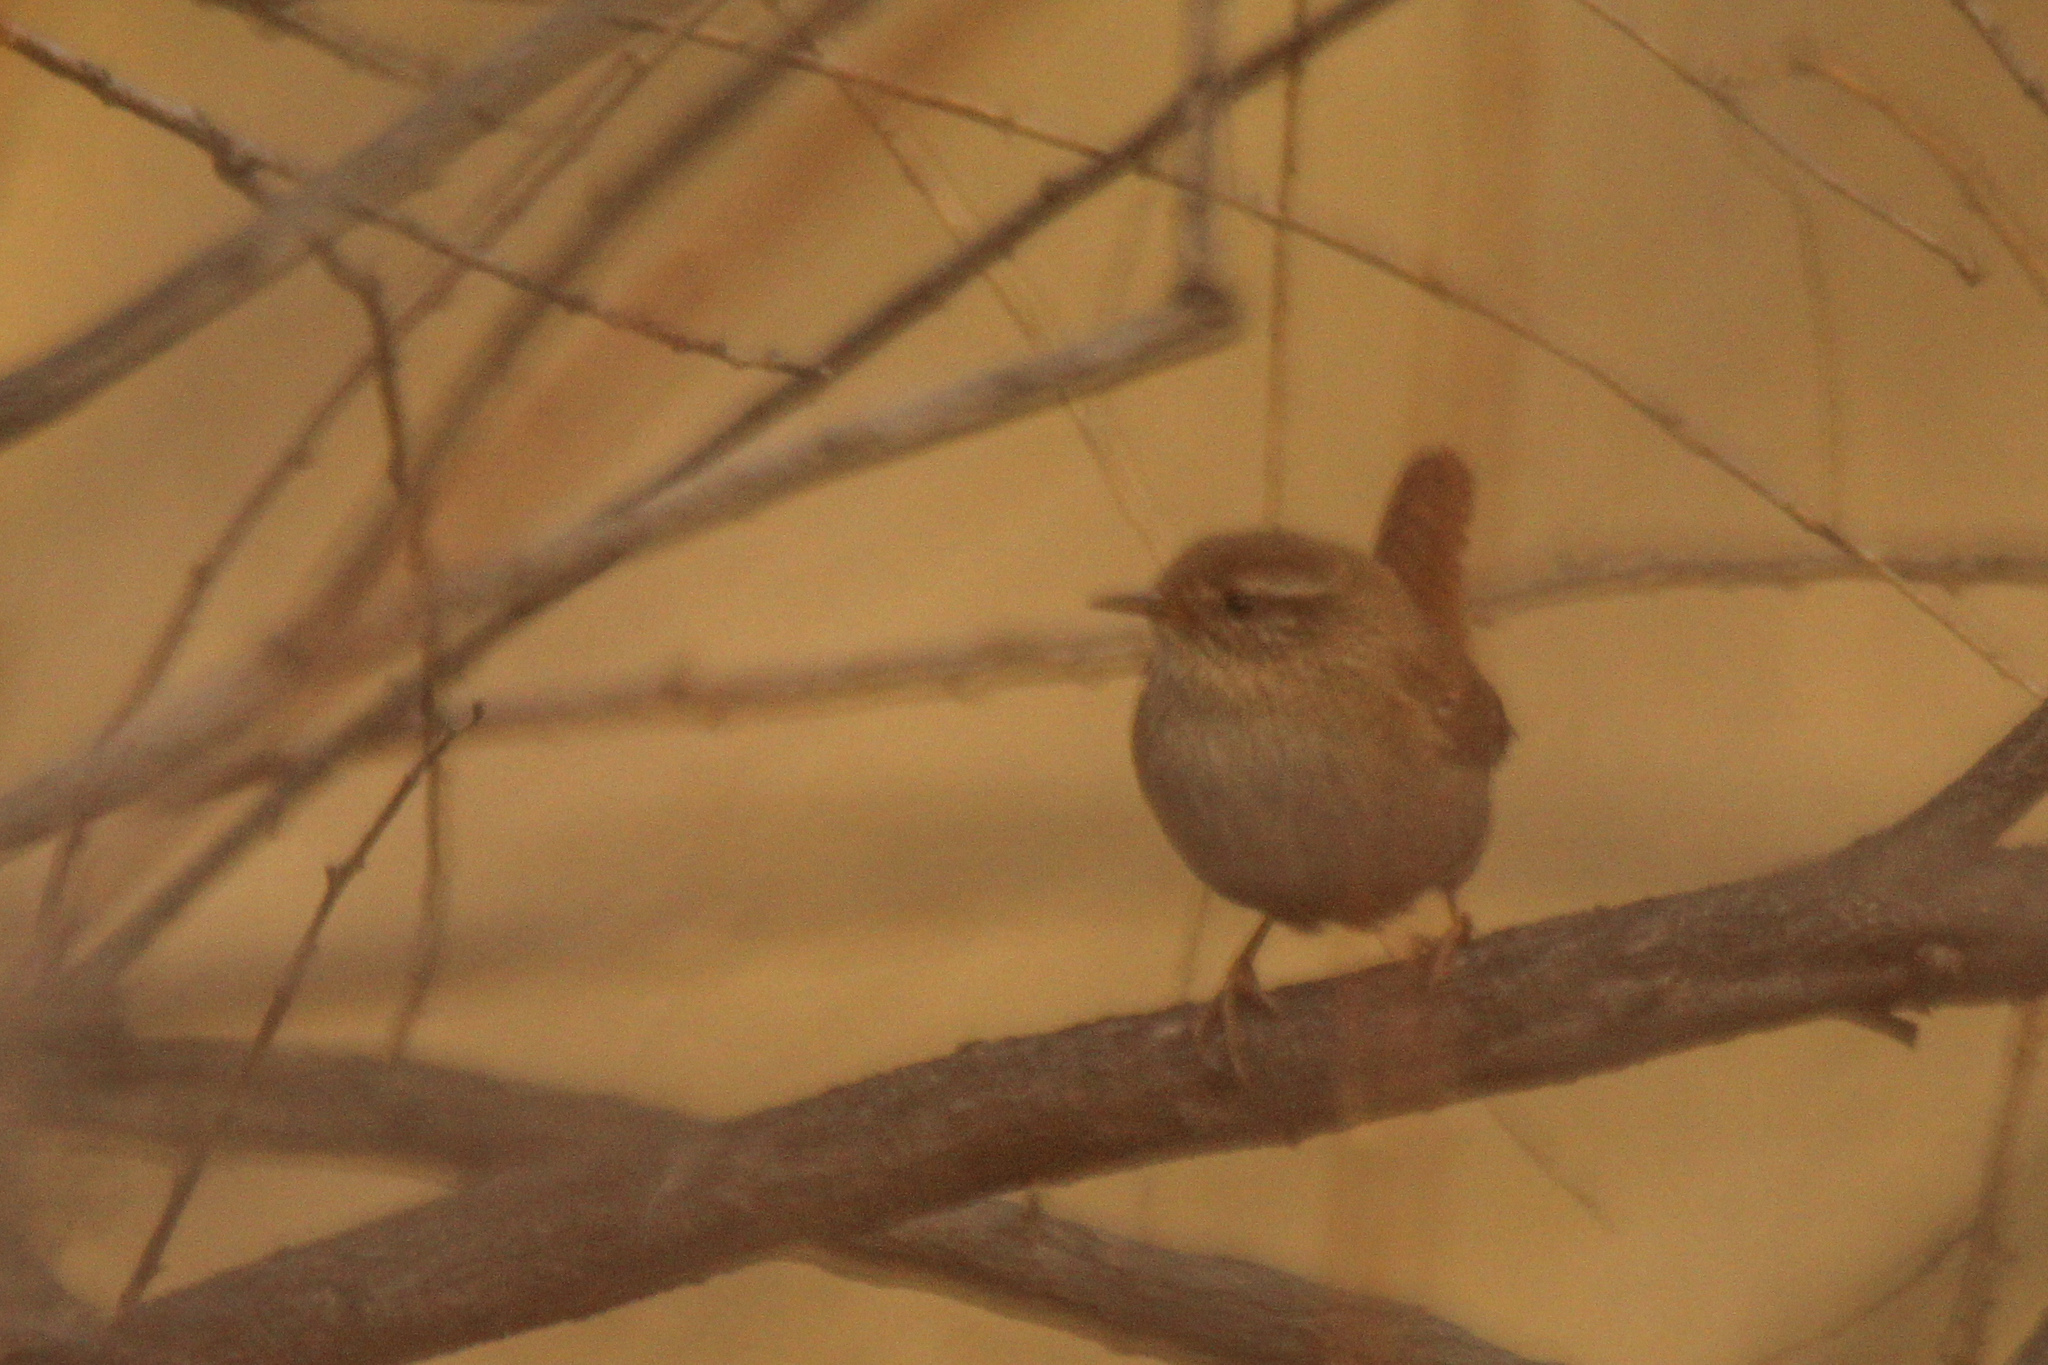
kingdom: Animalia
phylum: Chordata
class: Aves
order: Passeriformes
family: Troglodytidae
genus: Troglodytes
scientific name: Troglodytes troglodytes
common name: Eurasian wren
